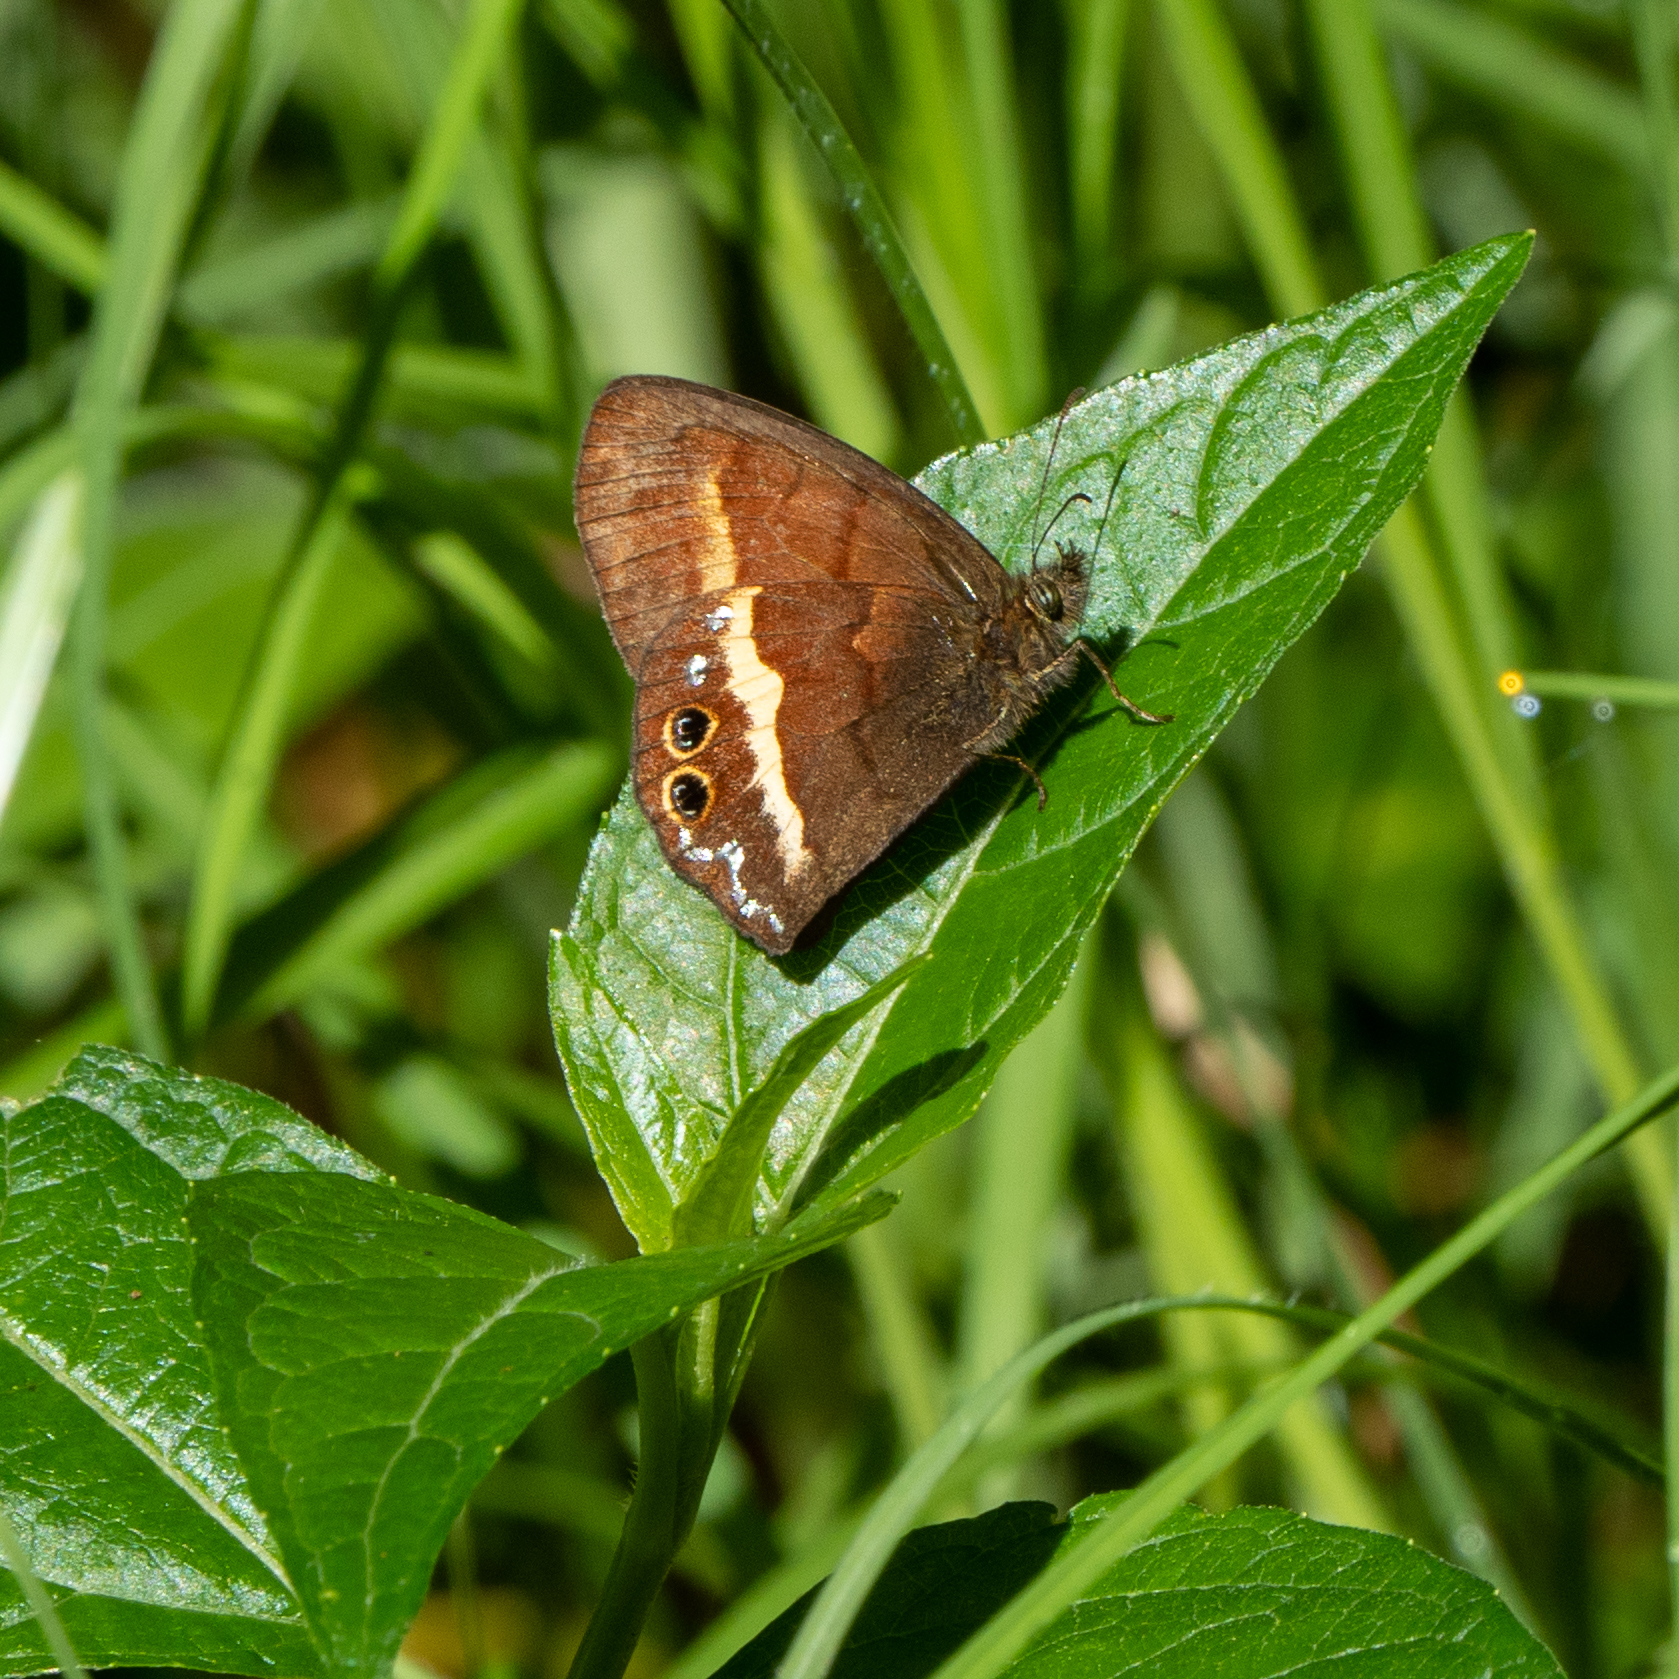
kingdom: Animalia
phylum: Arthropoda
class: Insecta
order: Lepidoptera
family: Nymphalidae
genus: Euptychia
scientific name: Euptychia
